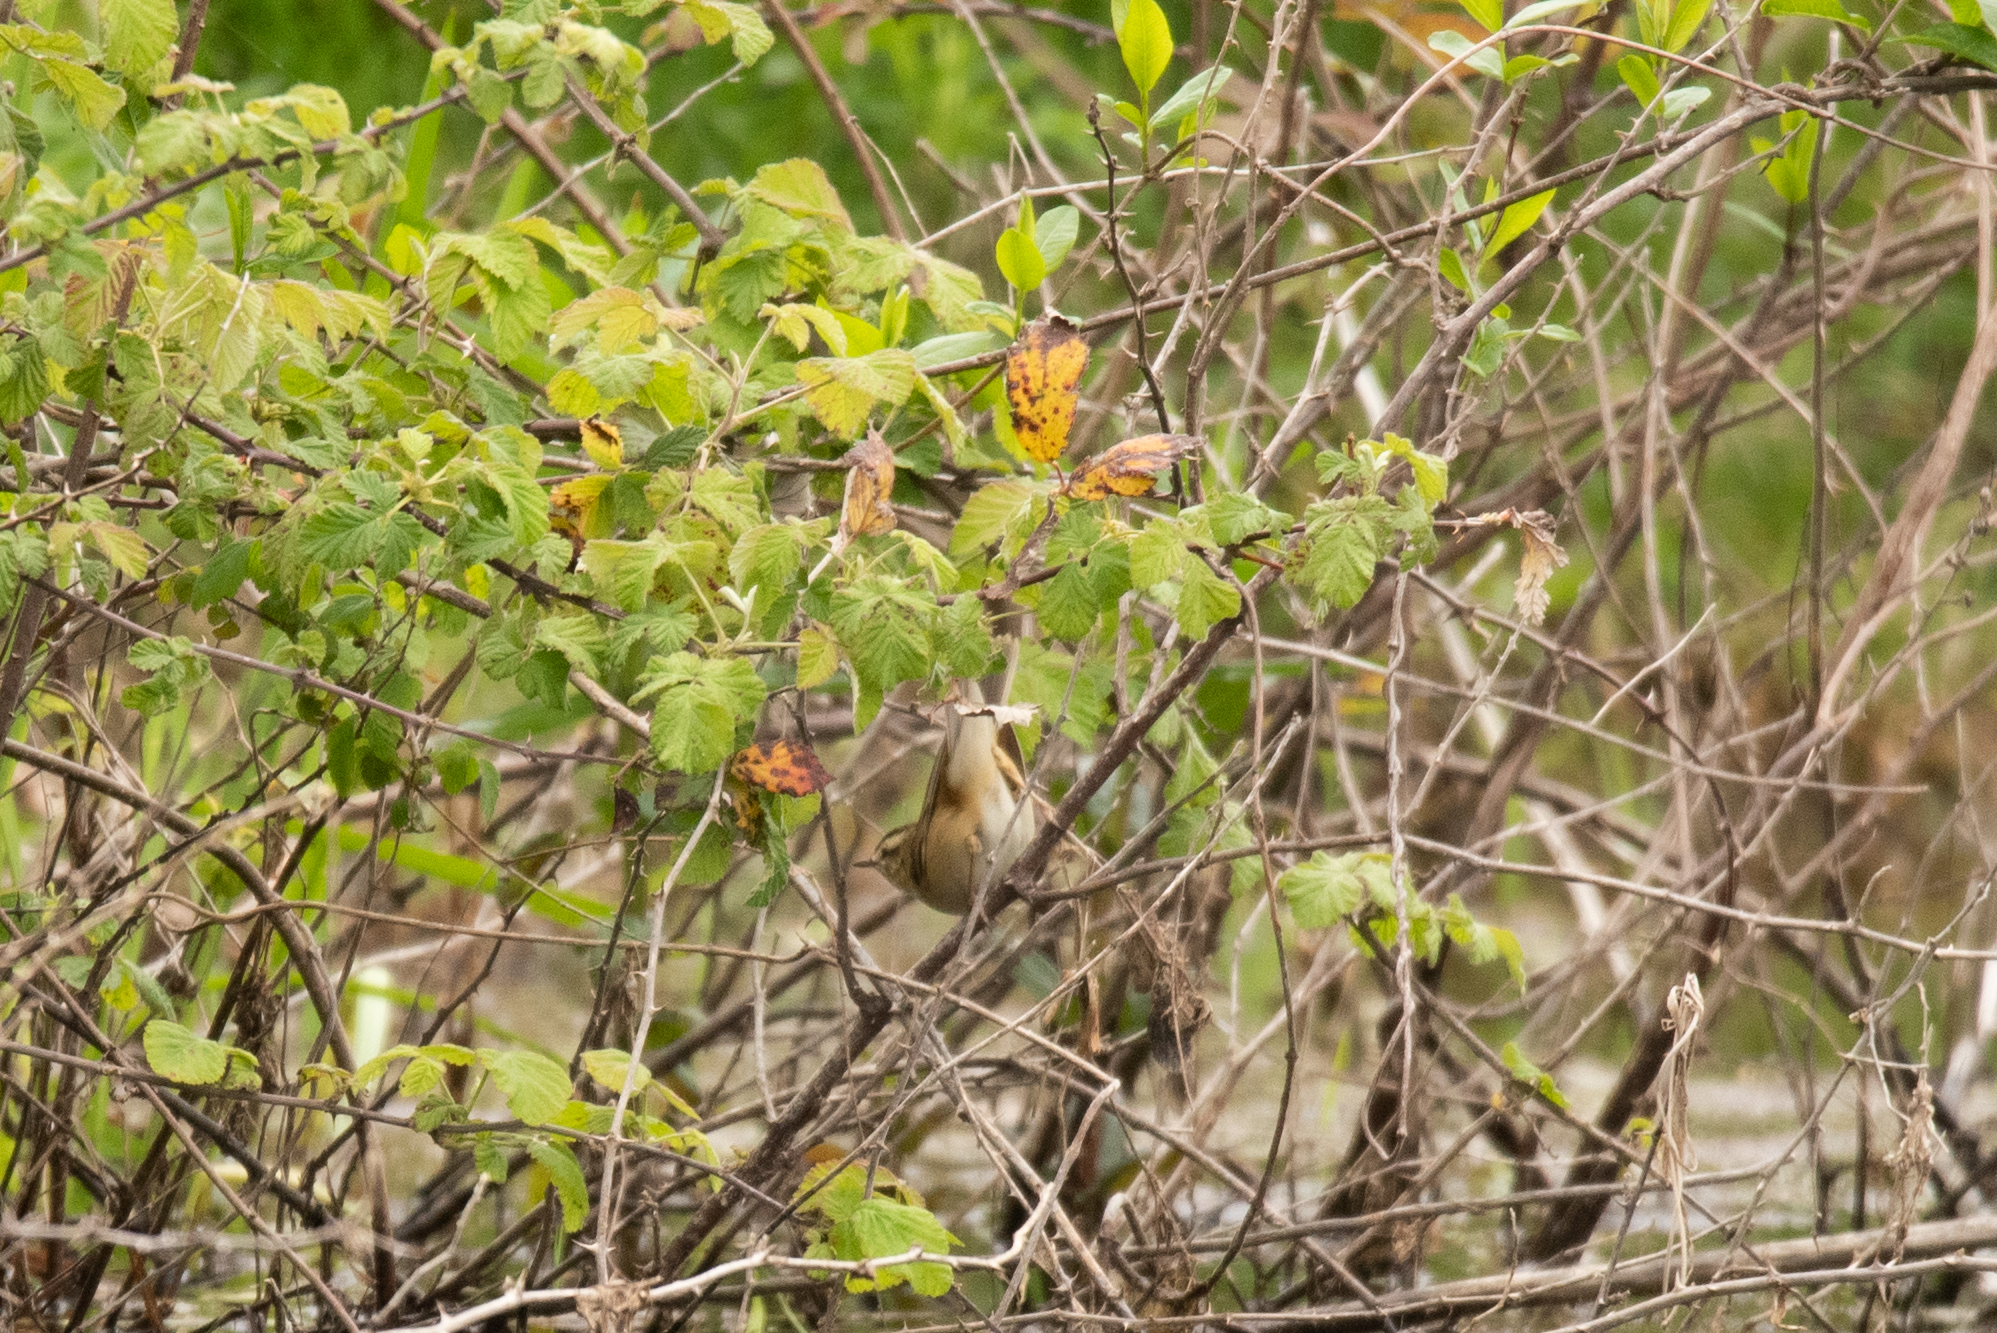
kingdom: Animalia
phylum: Chordata
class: Aves
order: Passeriformes
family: Acrocephalidae
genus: Acrocephalus
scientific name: Acrocephalus schoenobaenus
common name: Sedge warbler
